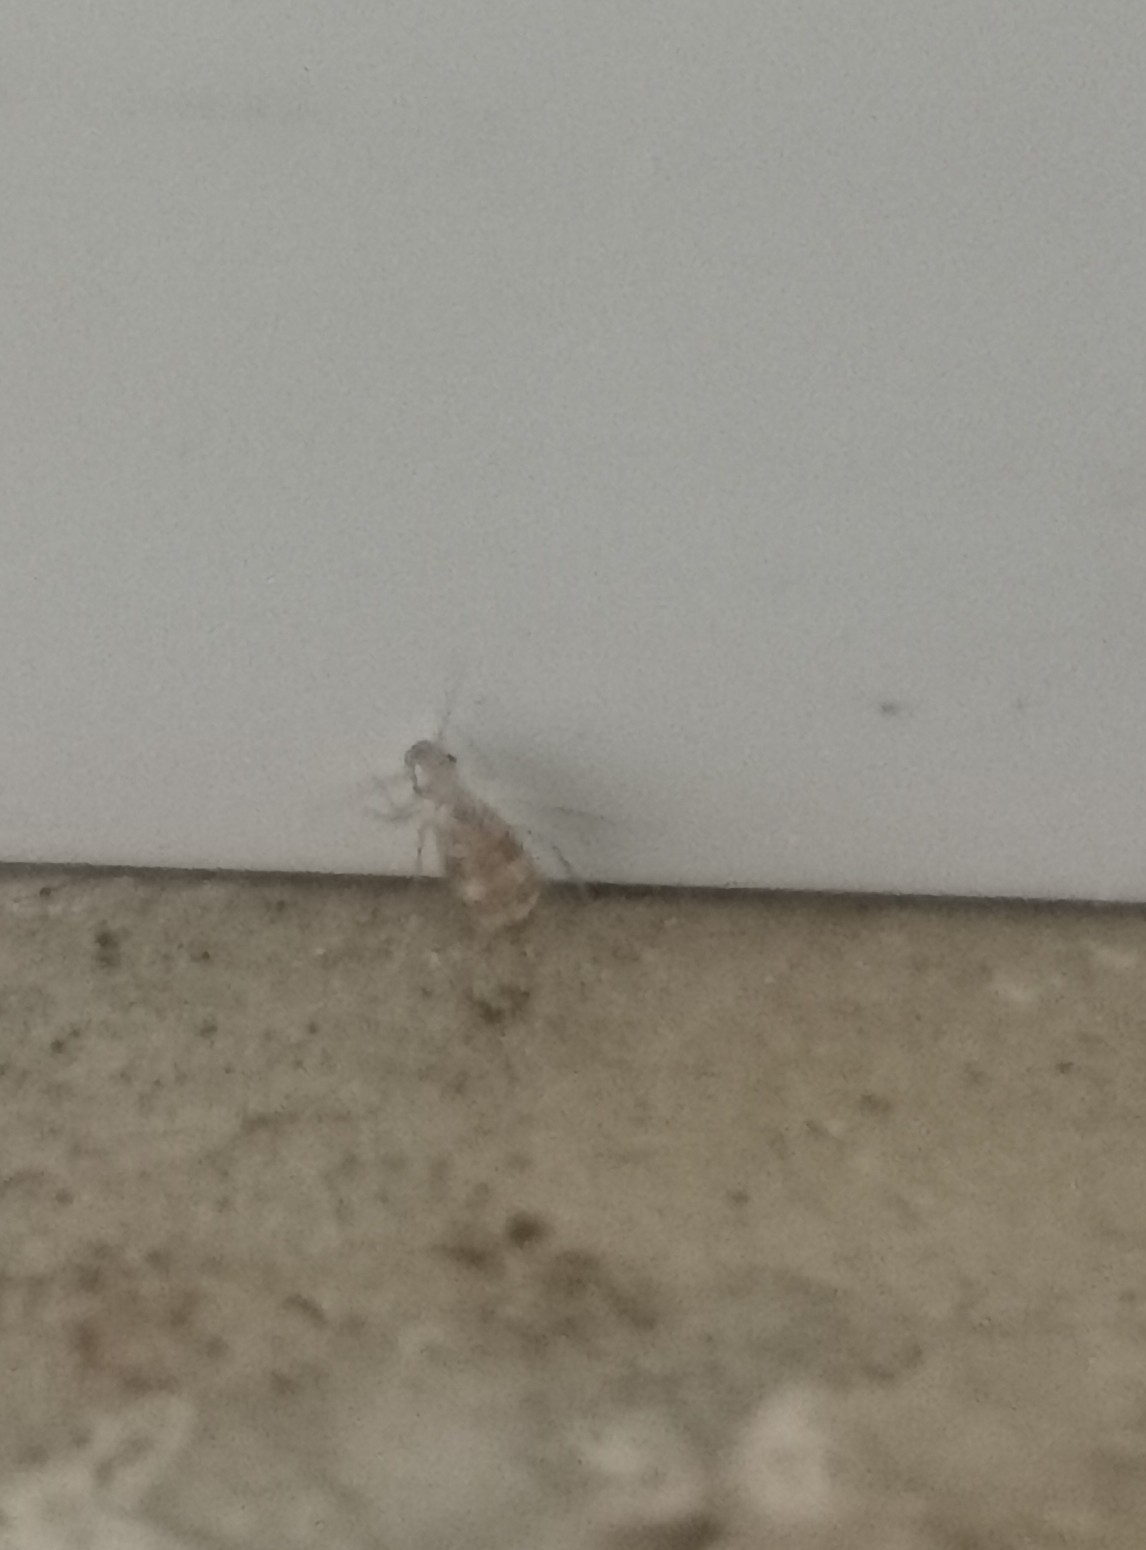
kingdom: Animalia
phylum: Arthropoda
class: Insecta
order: Psocodea
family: Psyllipsocidae
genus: Dorypteryx
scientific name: Dorypteryx domestica
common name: Cave barklouse
